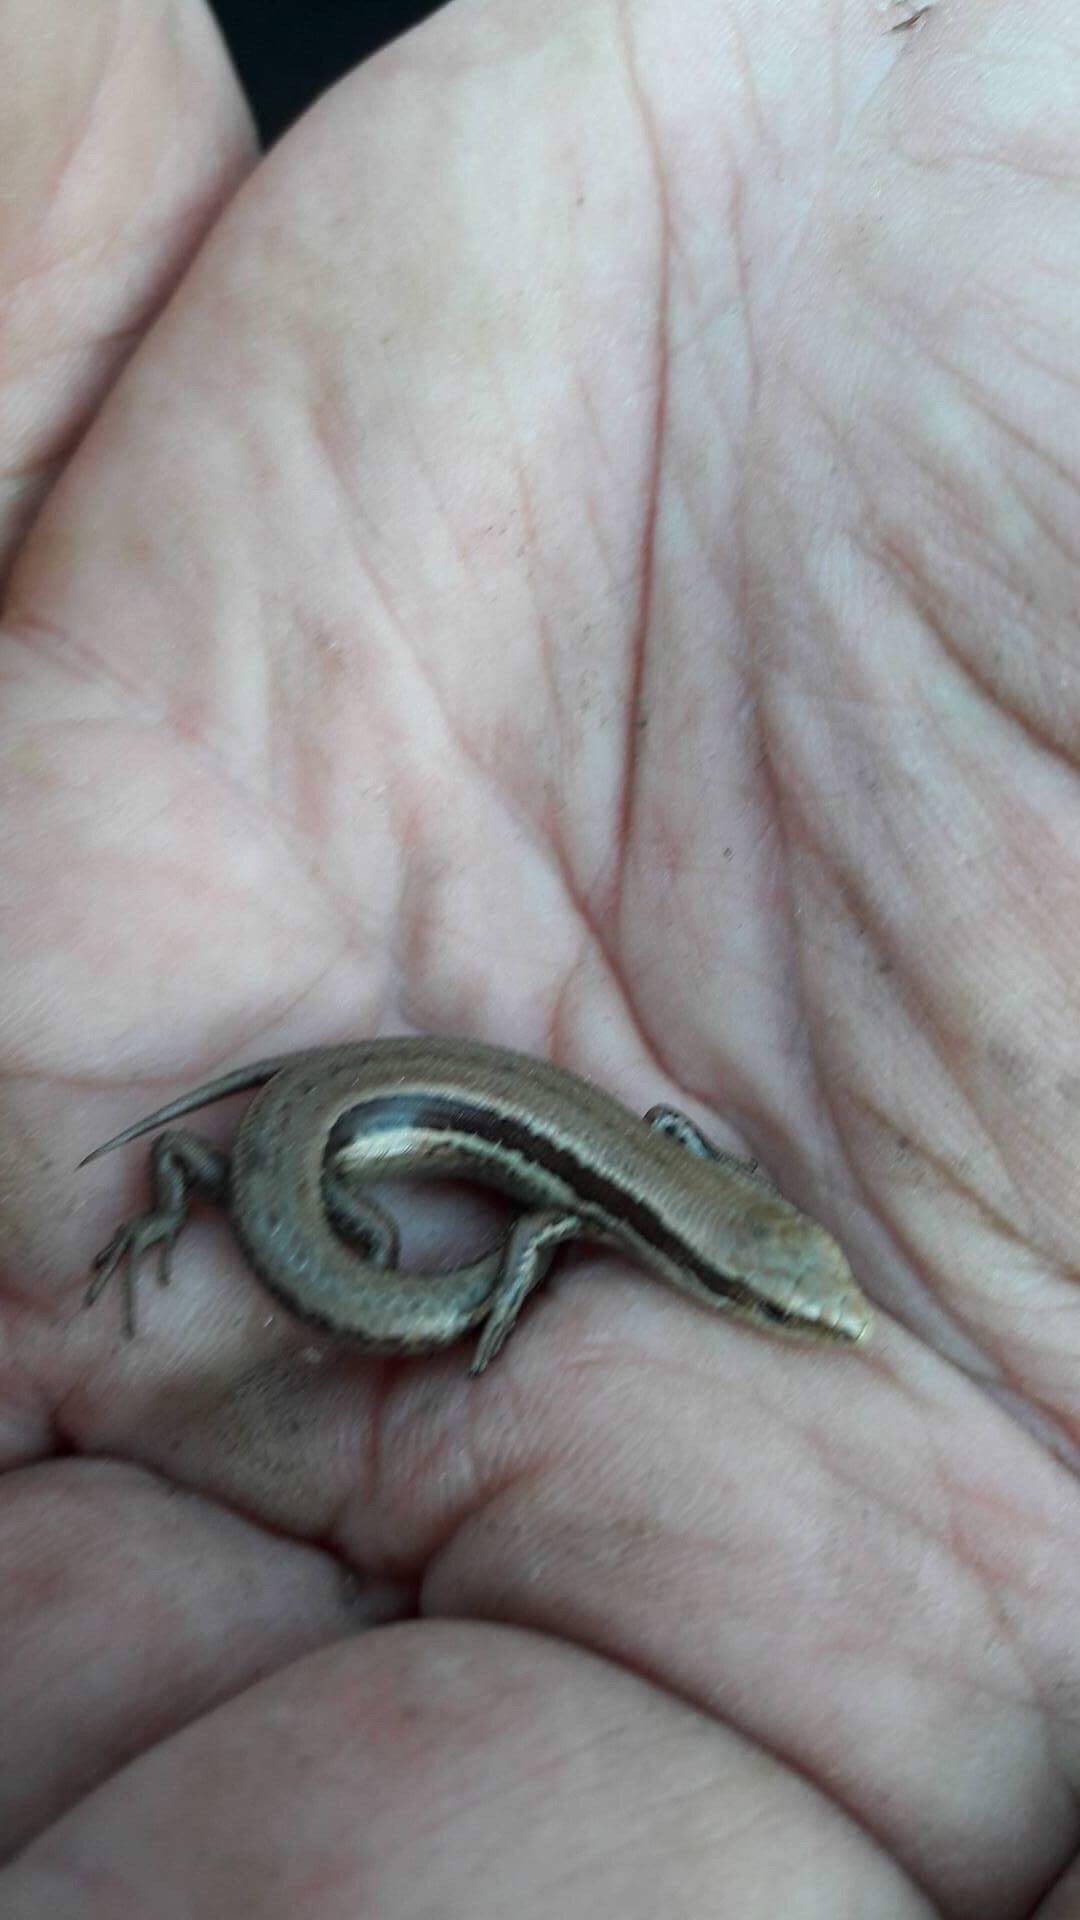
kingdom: Animalia
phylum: Chordata
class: Squamata
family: Scincidae
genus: Oligosoma
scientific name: Oligosoma polychroma
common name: Common new zealand skink
